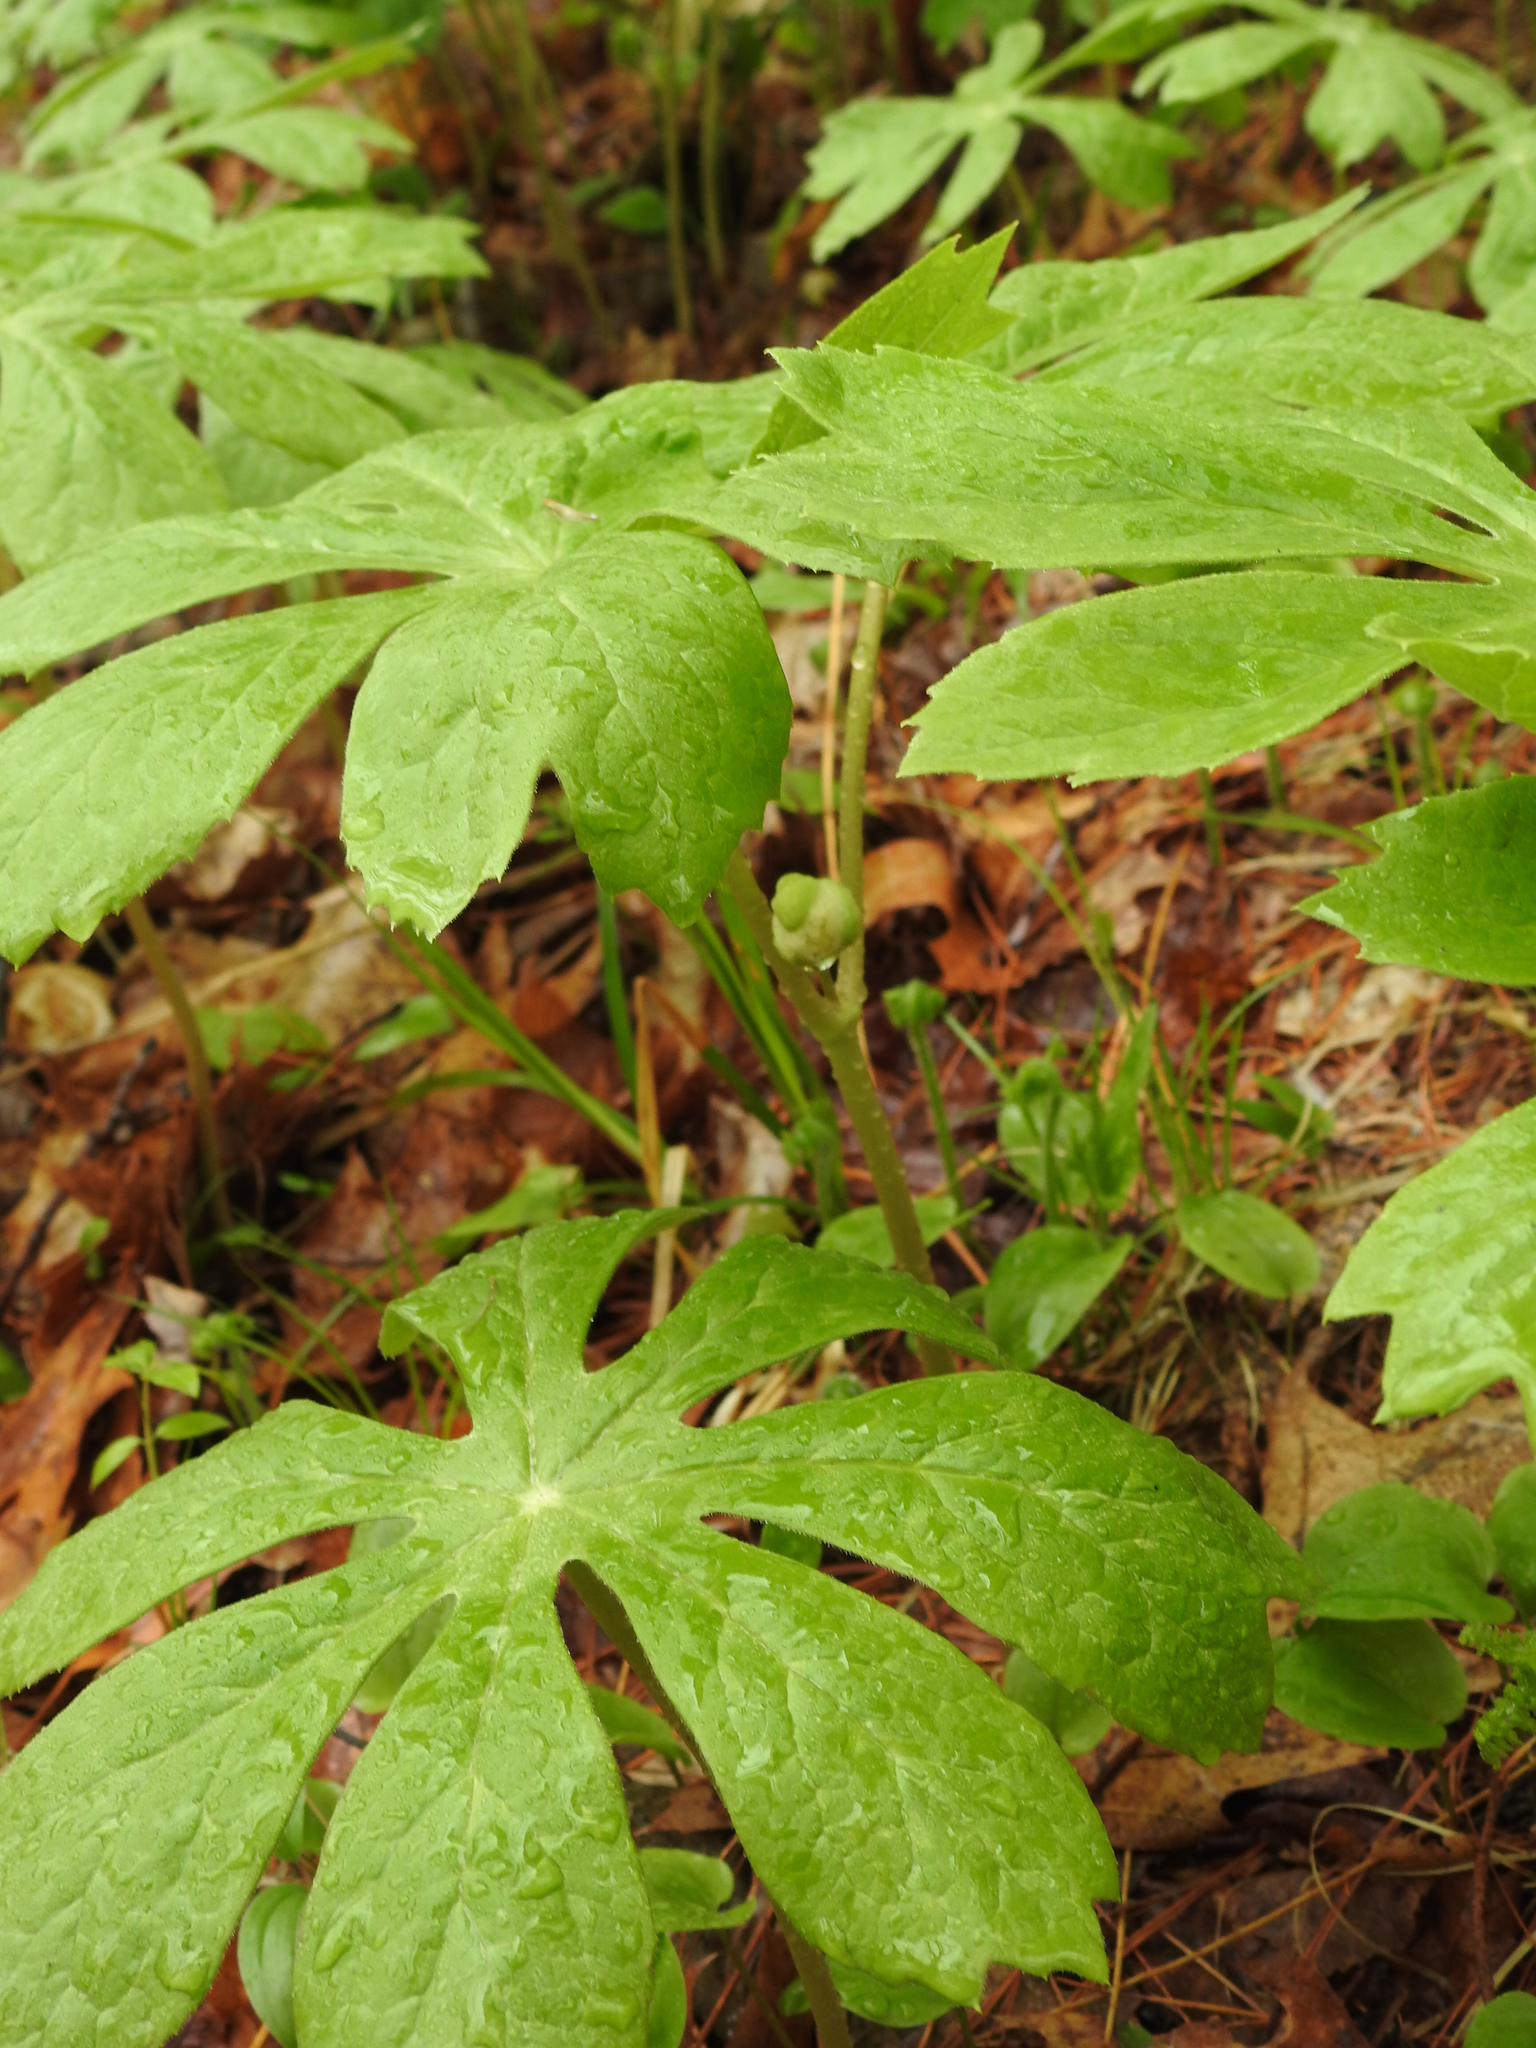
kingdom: Plantae
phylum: Tracheophyta
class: Magnoliopsida
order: Ranunculales
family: Berberidaceae
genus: Podophyllum
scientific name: Podophyllum peltatum
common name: Wild mandrake
